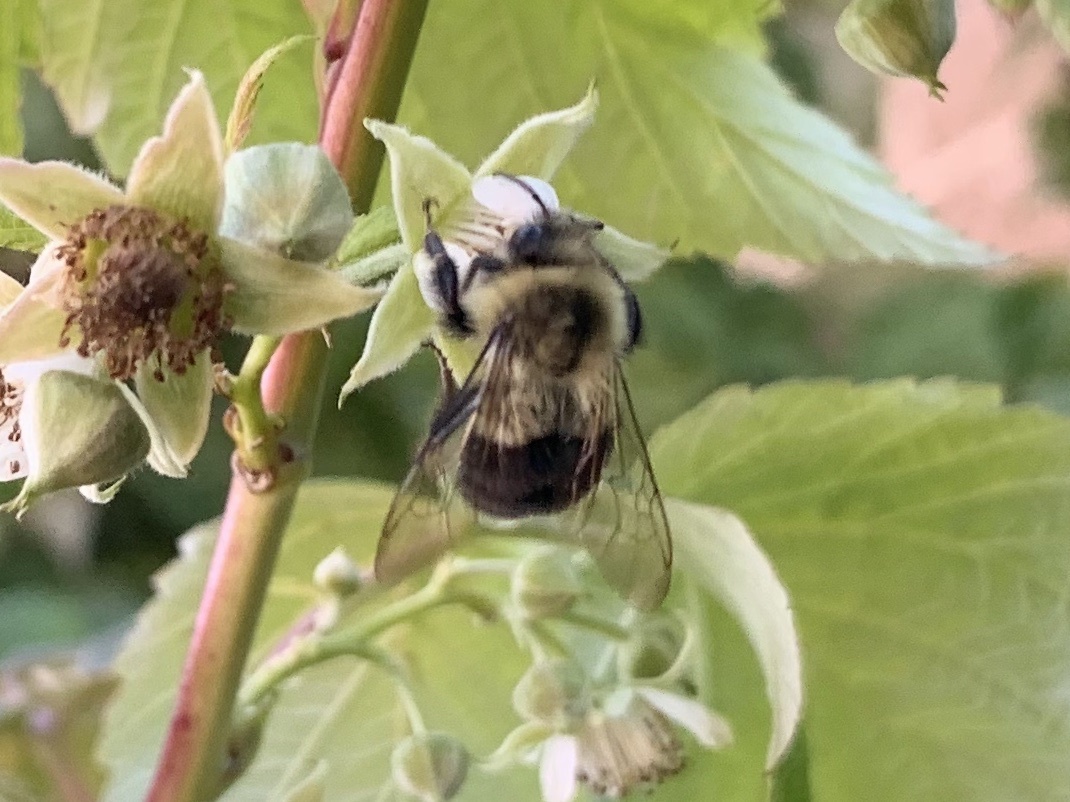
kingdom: Animalia
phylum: Arthropoda
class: Insecta
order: Hymenoptera
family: Apidae
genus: Bombus
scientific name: Bombus impatiens
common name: Common eastern bumble bee
